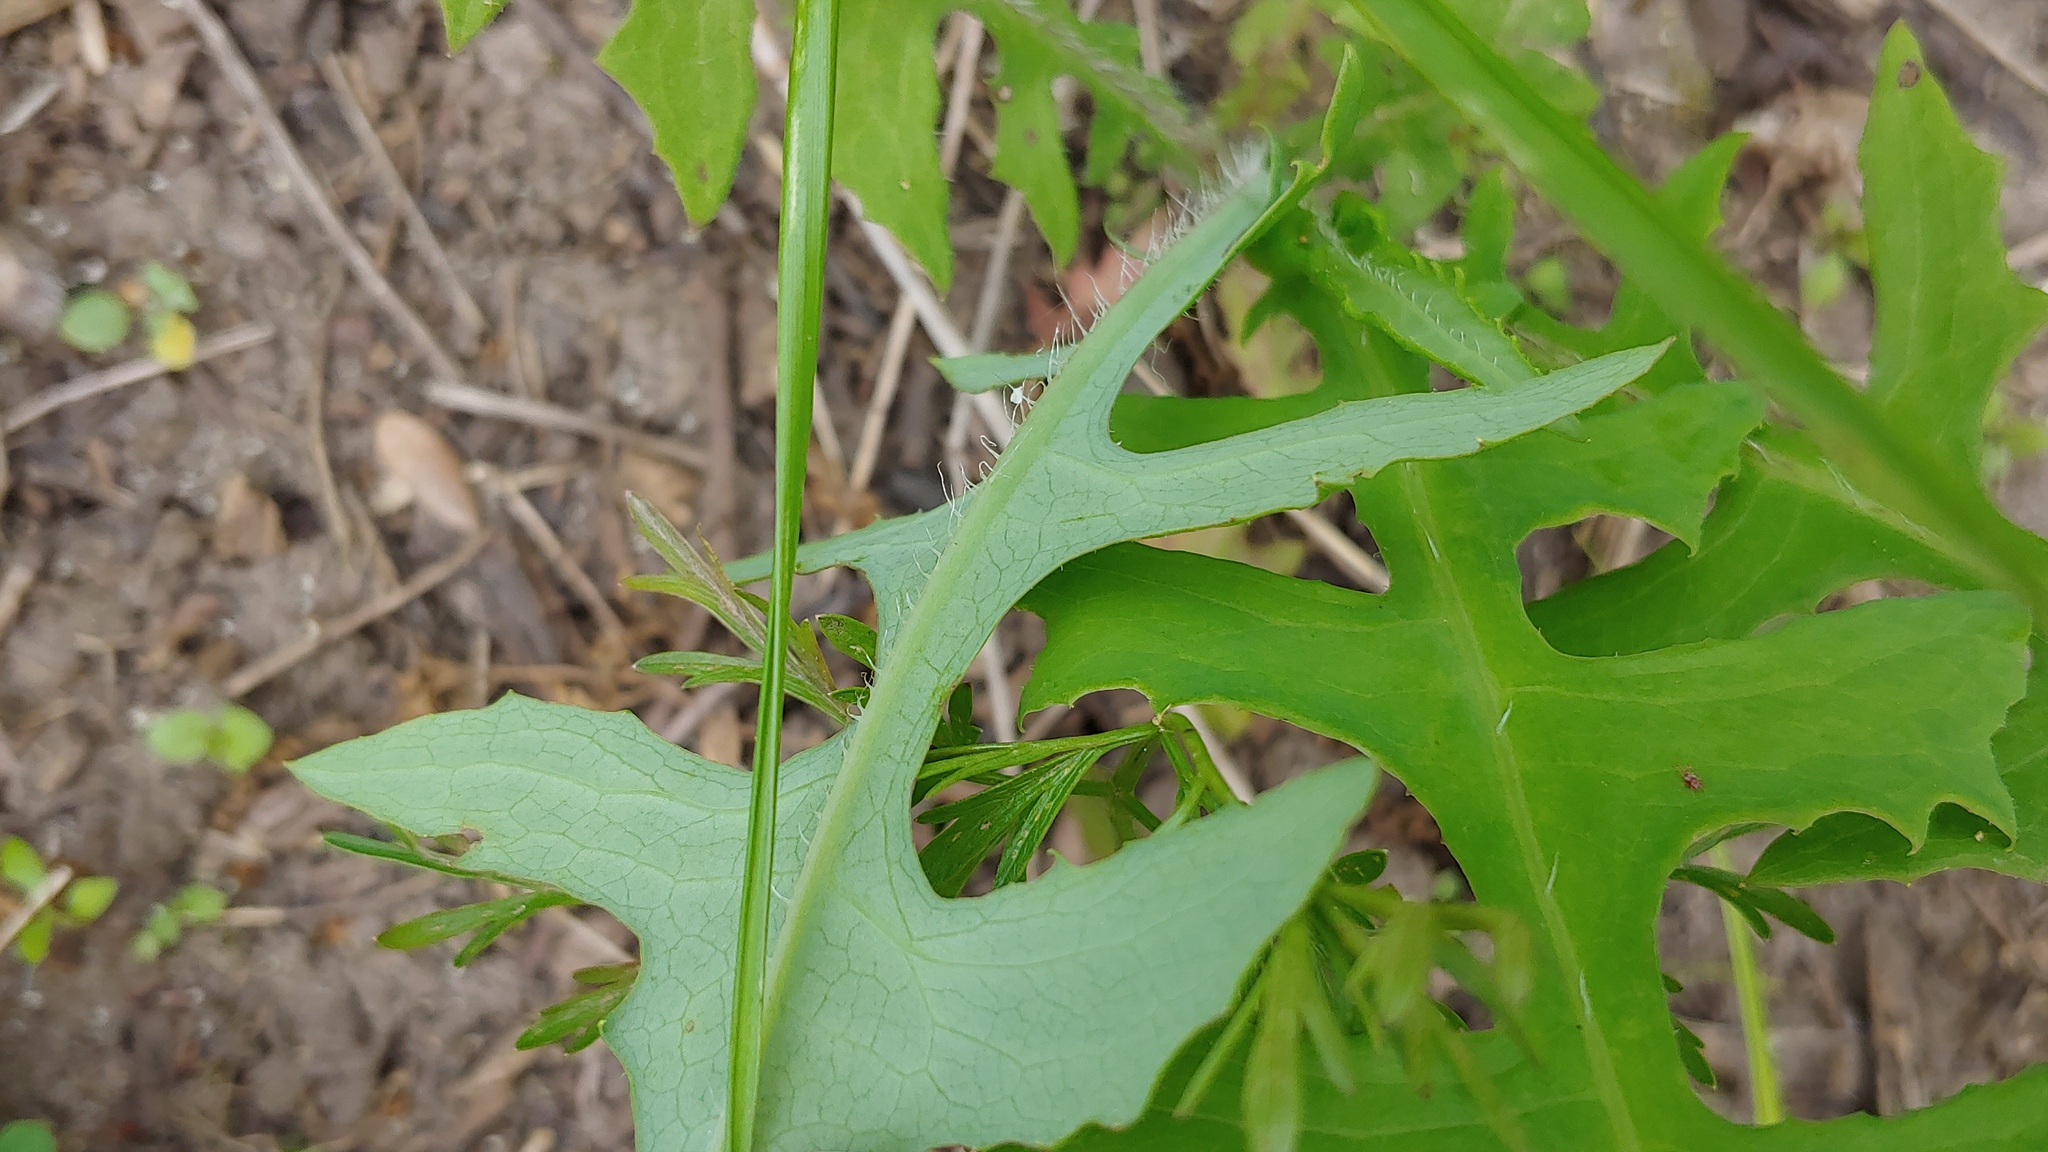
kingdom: Plantae
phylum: Tracheophyta
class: Magnoliopsida
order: Asterales
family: Asteraceae
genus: Lactuca
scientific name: Lactuca canadensis
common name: Canada lettuce
